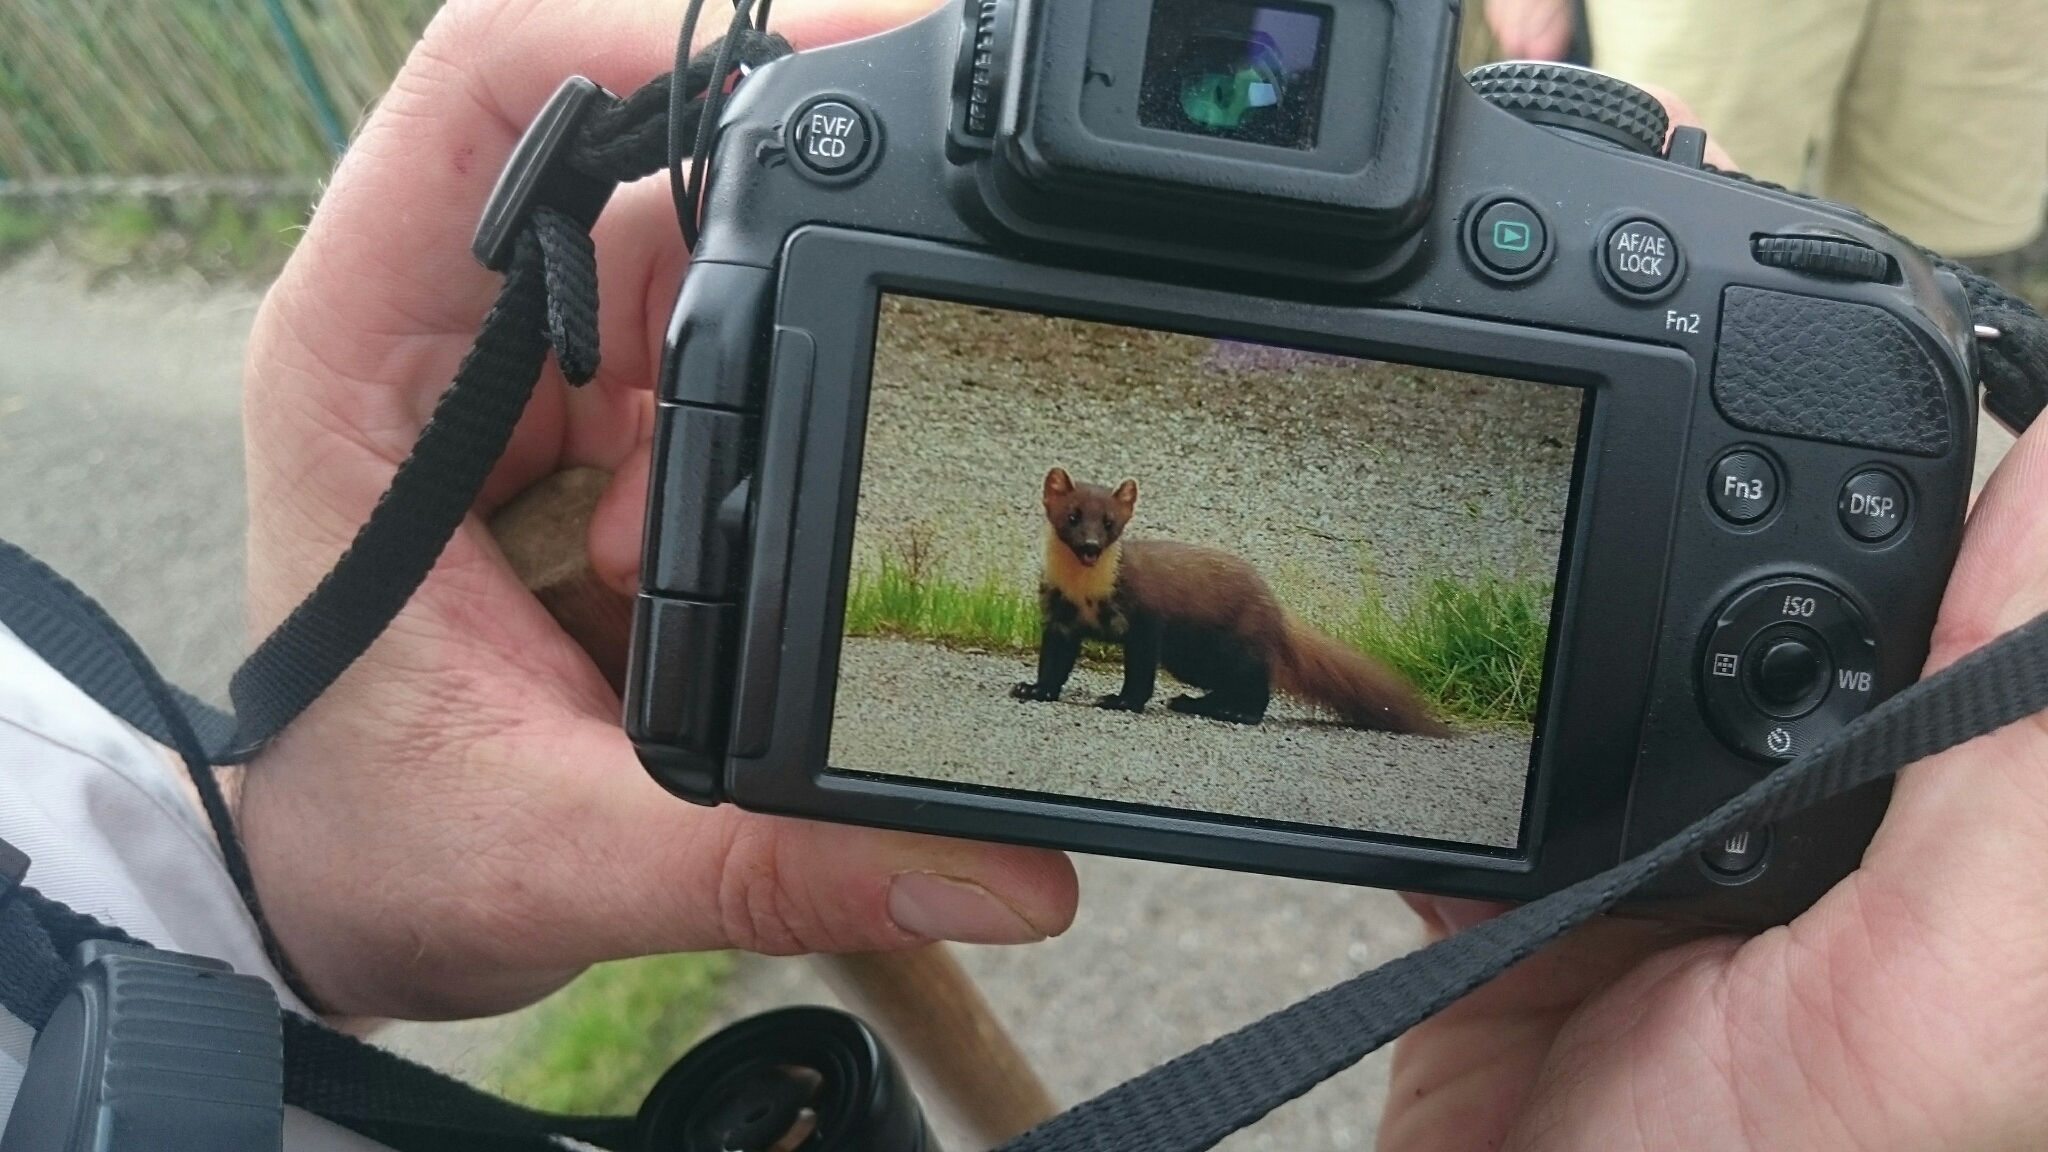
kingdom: Animalia
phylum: Chordata
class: Mammalia
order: Carnivora
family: Mustelidae
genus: Martes
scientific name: Martes martes
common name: European pine marten
